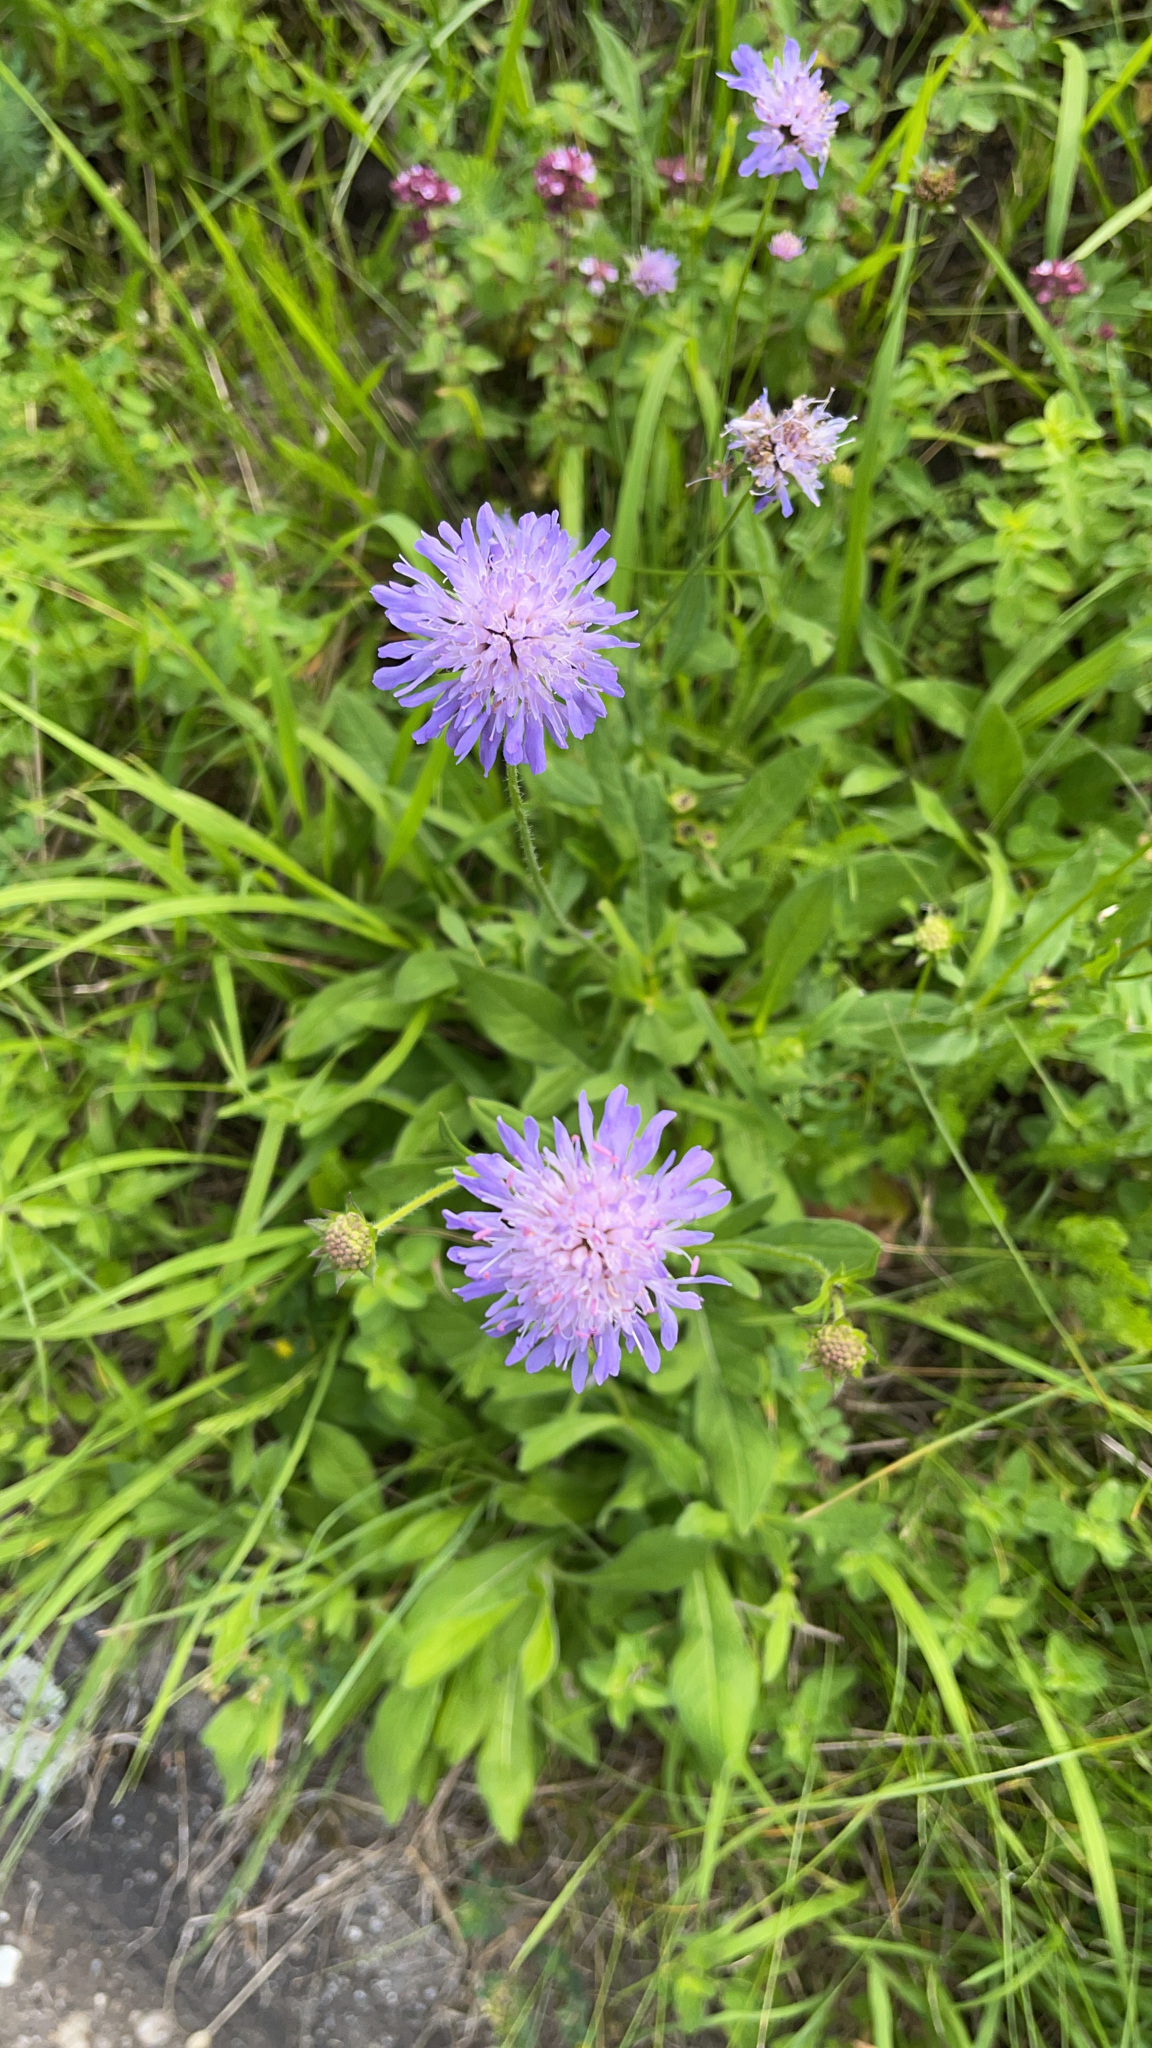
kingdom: Plantae
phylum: Tracheophyta
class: Magnoliopsida
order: Dipsacales
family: Caprifoliaceae
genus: Knautia
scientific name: Knautia arvensis
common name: Field scabiosa
